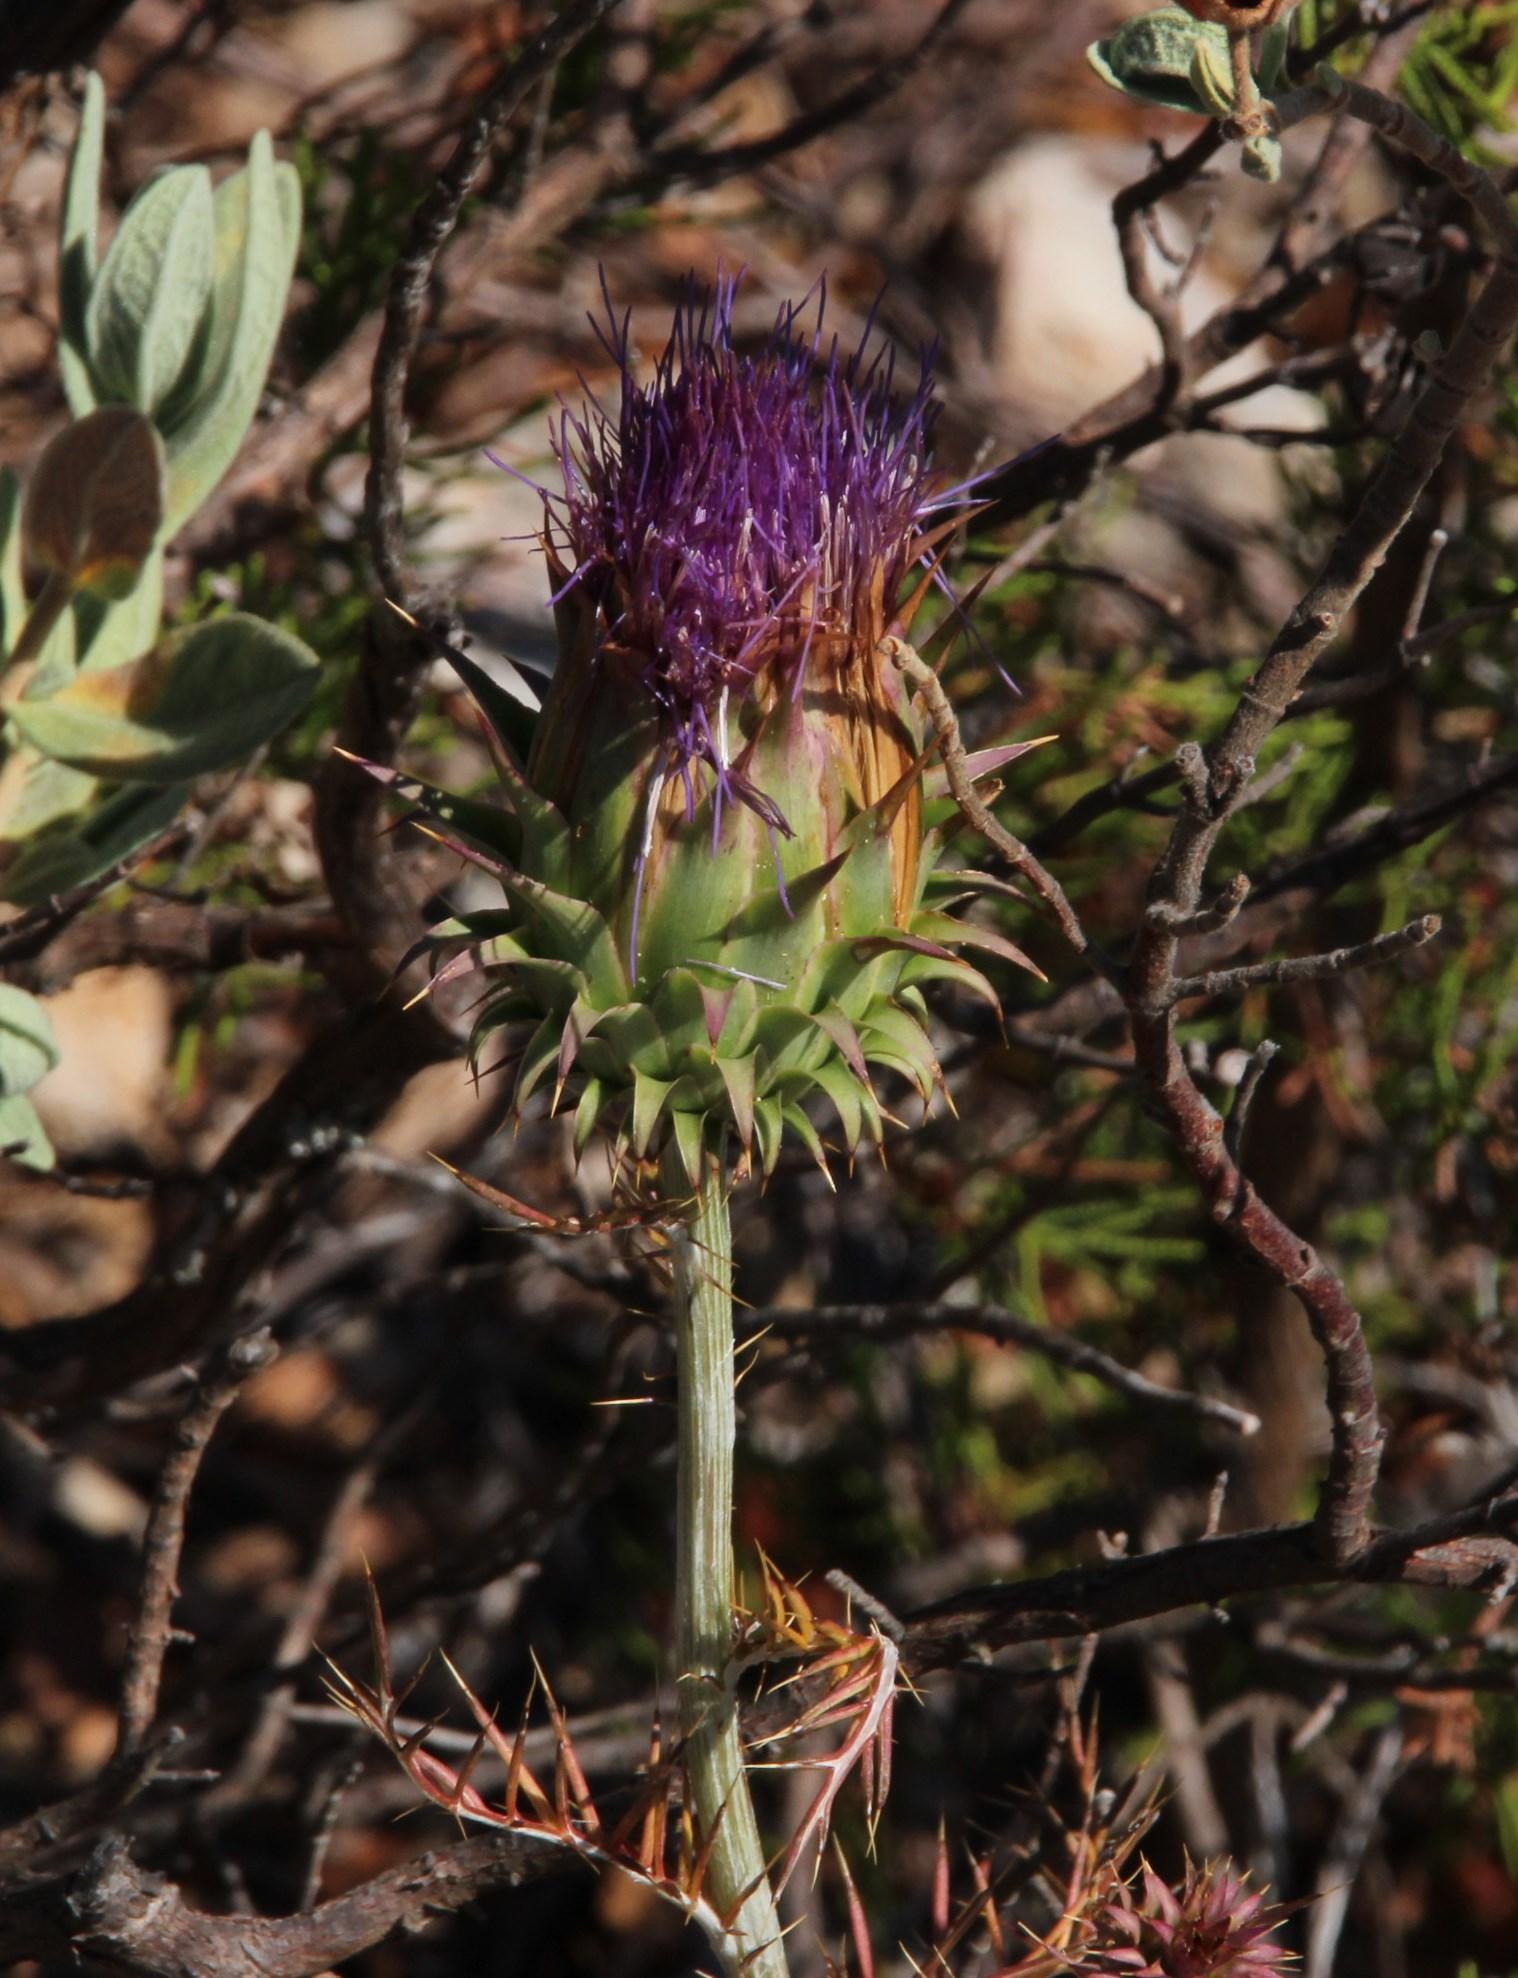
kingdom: Plantae
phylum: Tracheophyta
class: Magnoliopsida
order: Asterales
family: Asteraceae
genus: Cynara
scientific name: Cynara humilis
